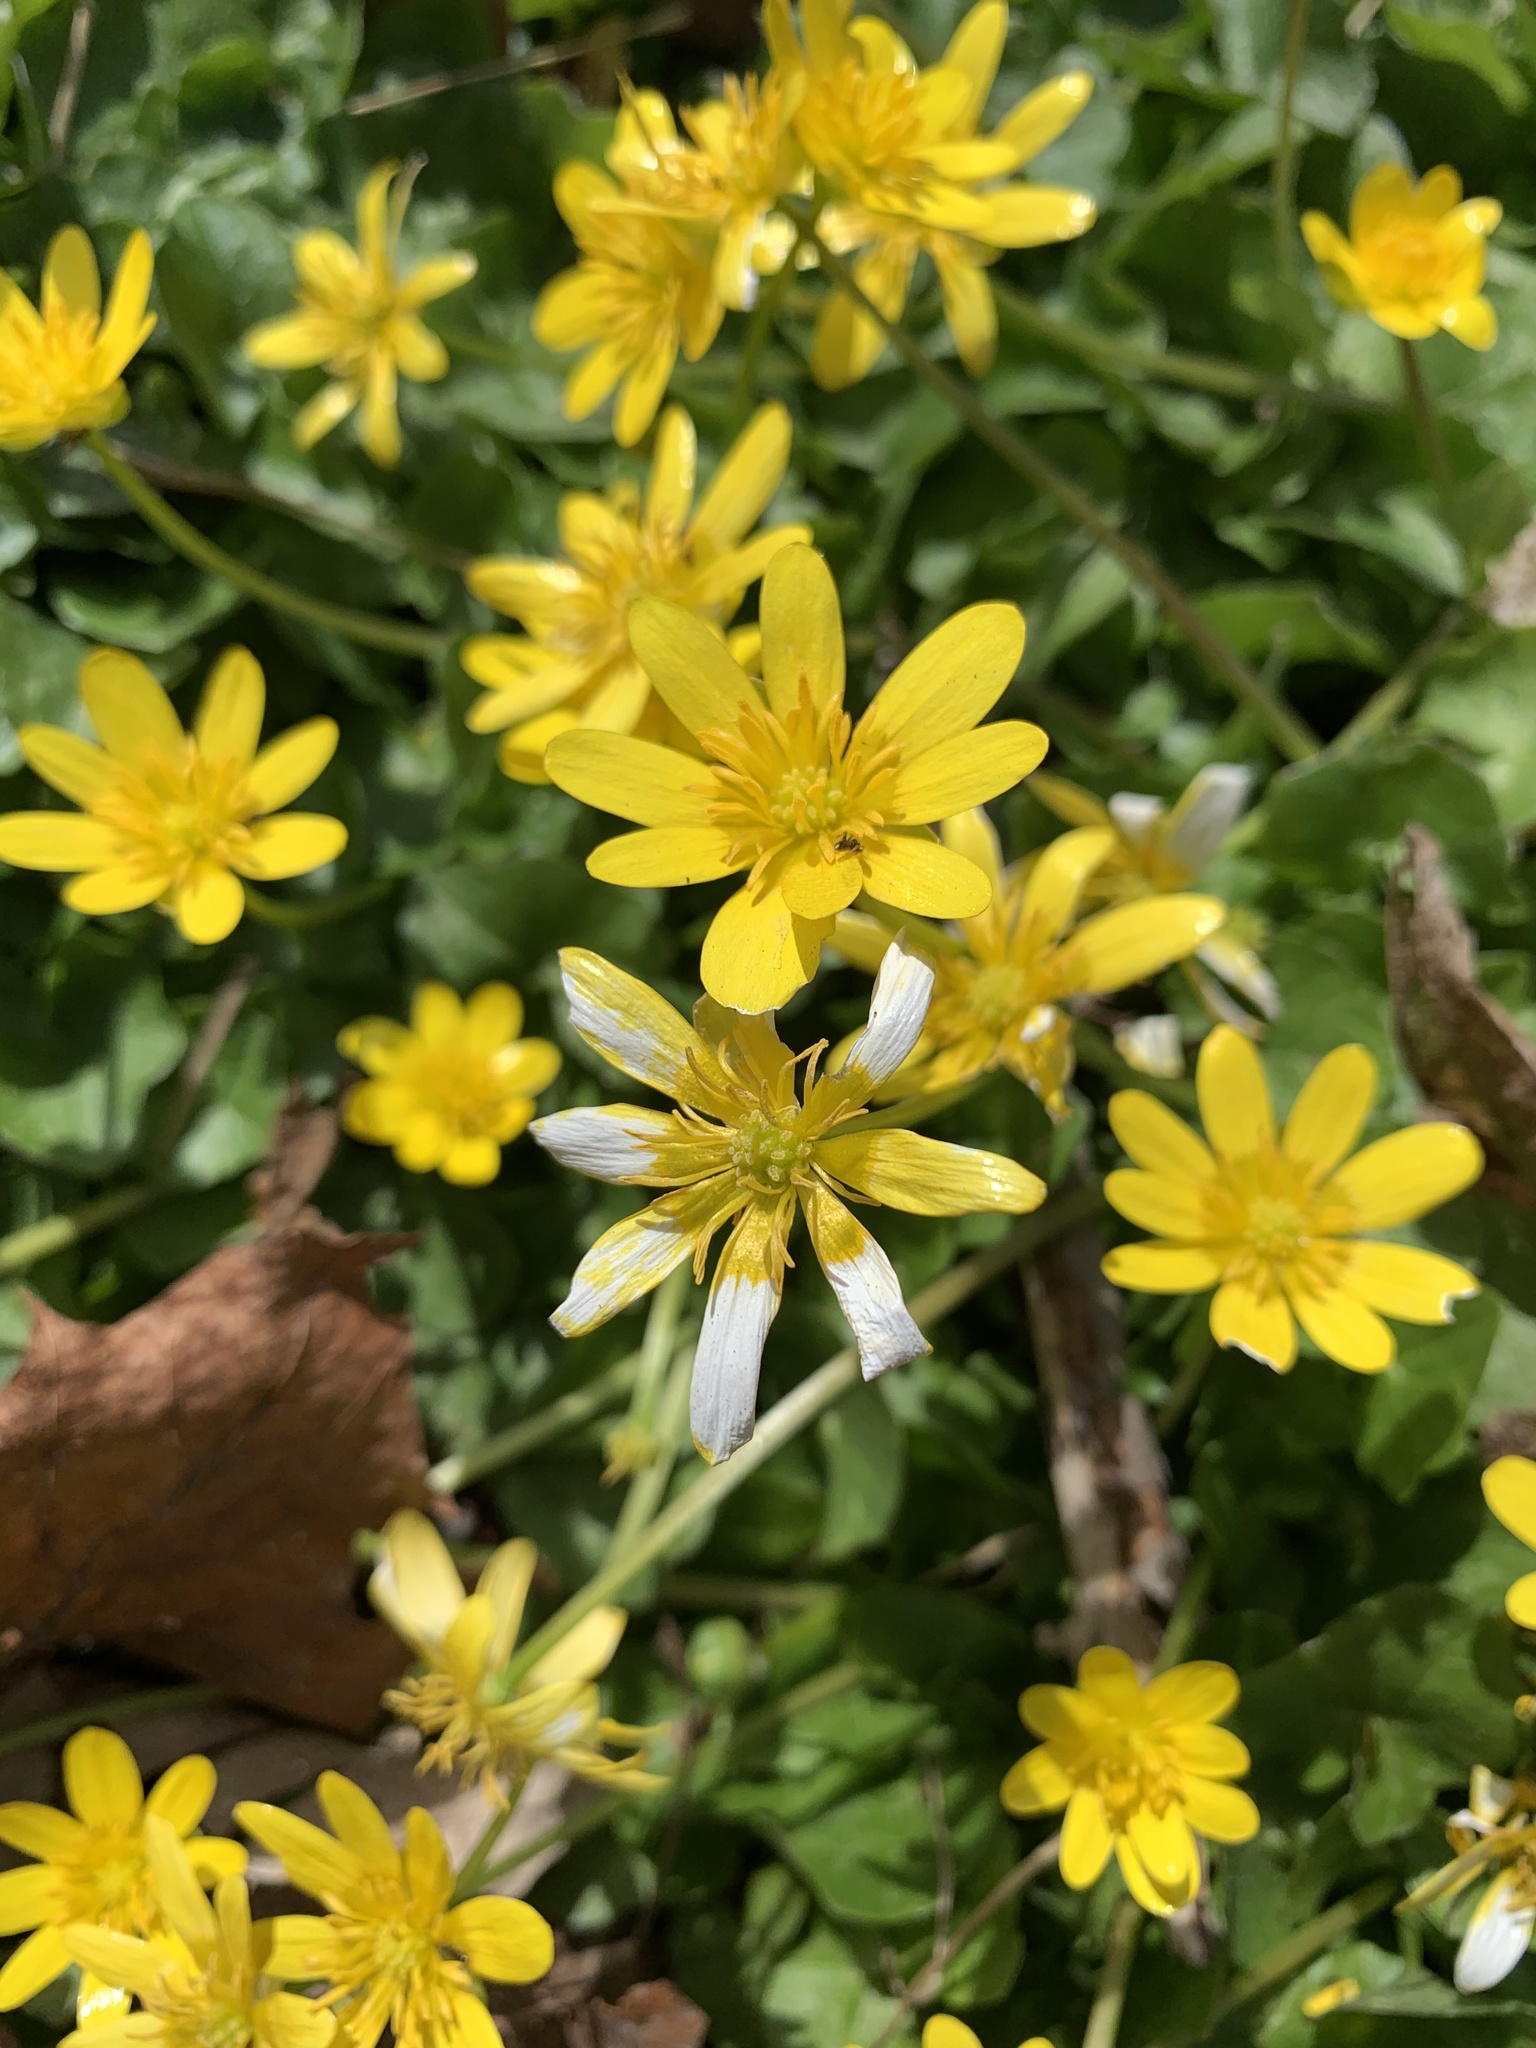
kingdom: Plantae
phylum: Tracheophyta
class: Magnoliopsida
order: Ranunculales
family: Ranunculaceae
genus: Ficaria
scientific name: Ficaria verna
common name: Lesser celandine
